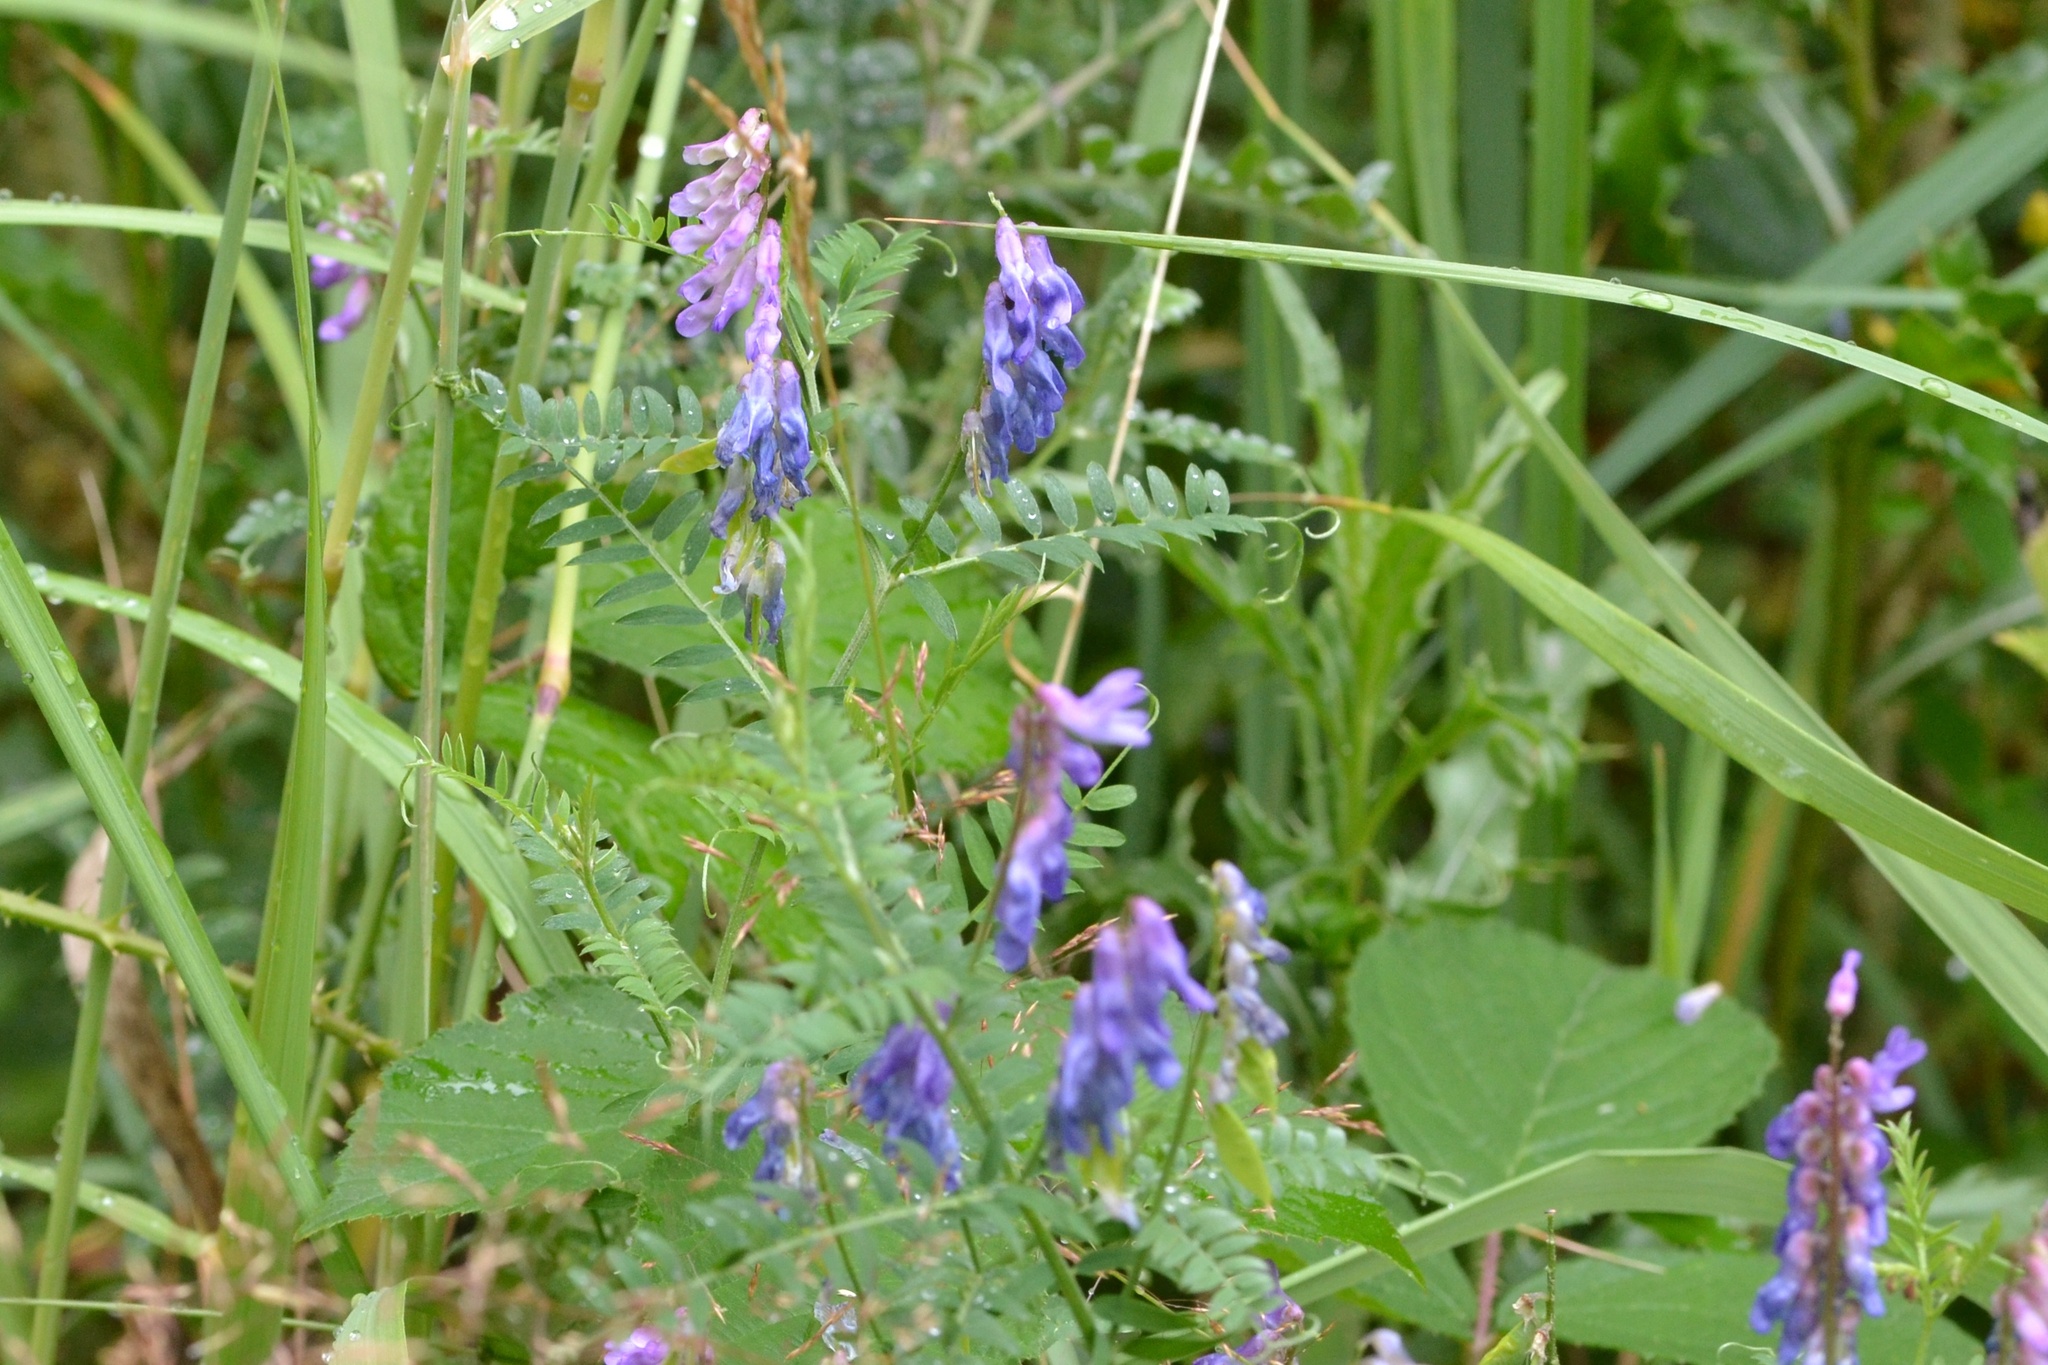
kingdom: Plantae
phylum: Tracheophyta
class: Magnoliopsida
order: Fabales
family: Fabaceae
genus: Vicia
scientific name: Vicia cracca
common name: Bird vetch
